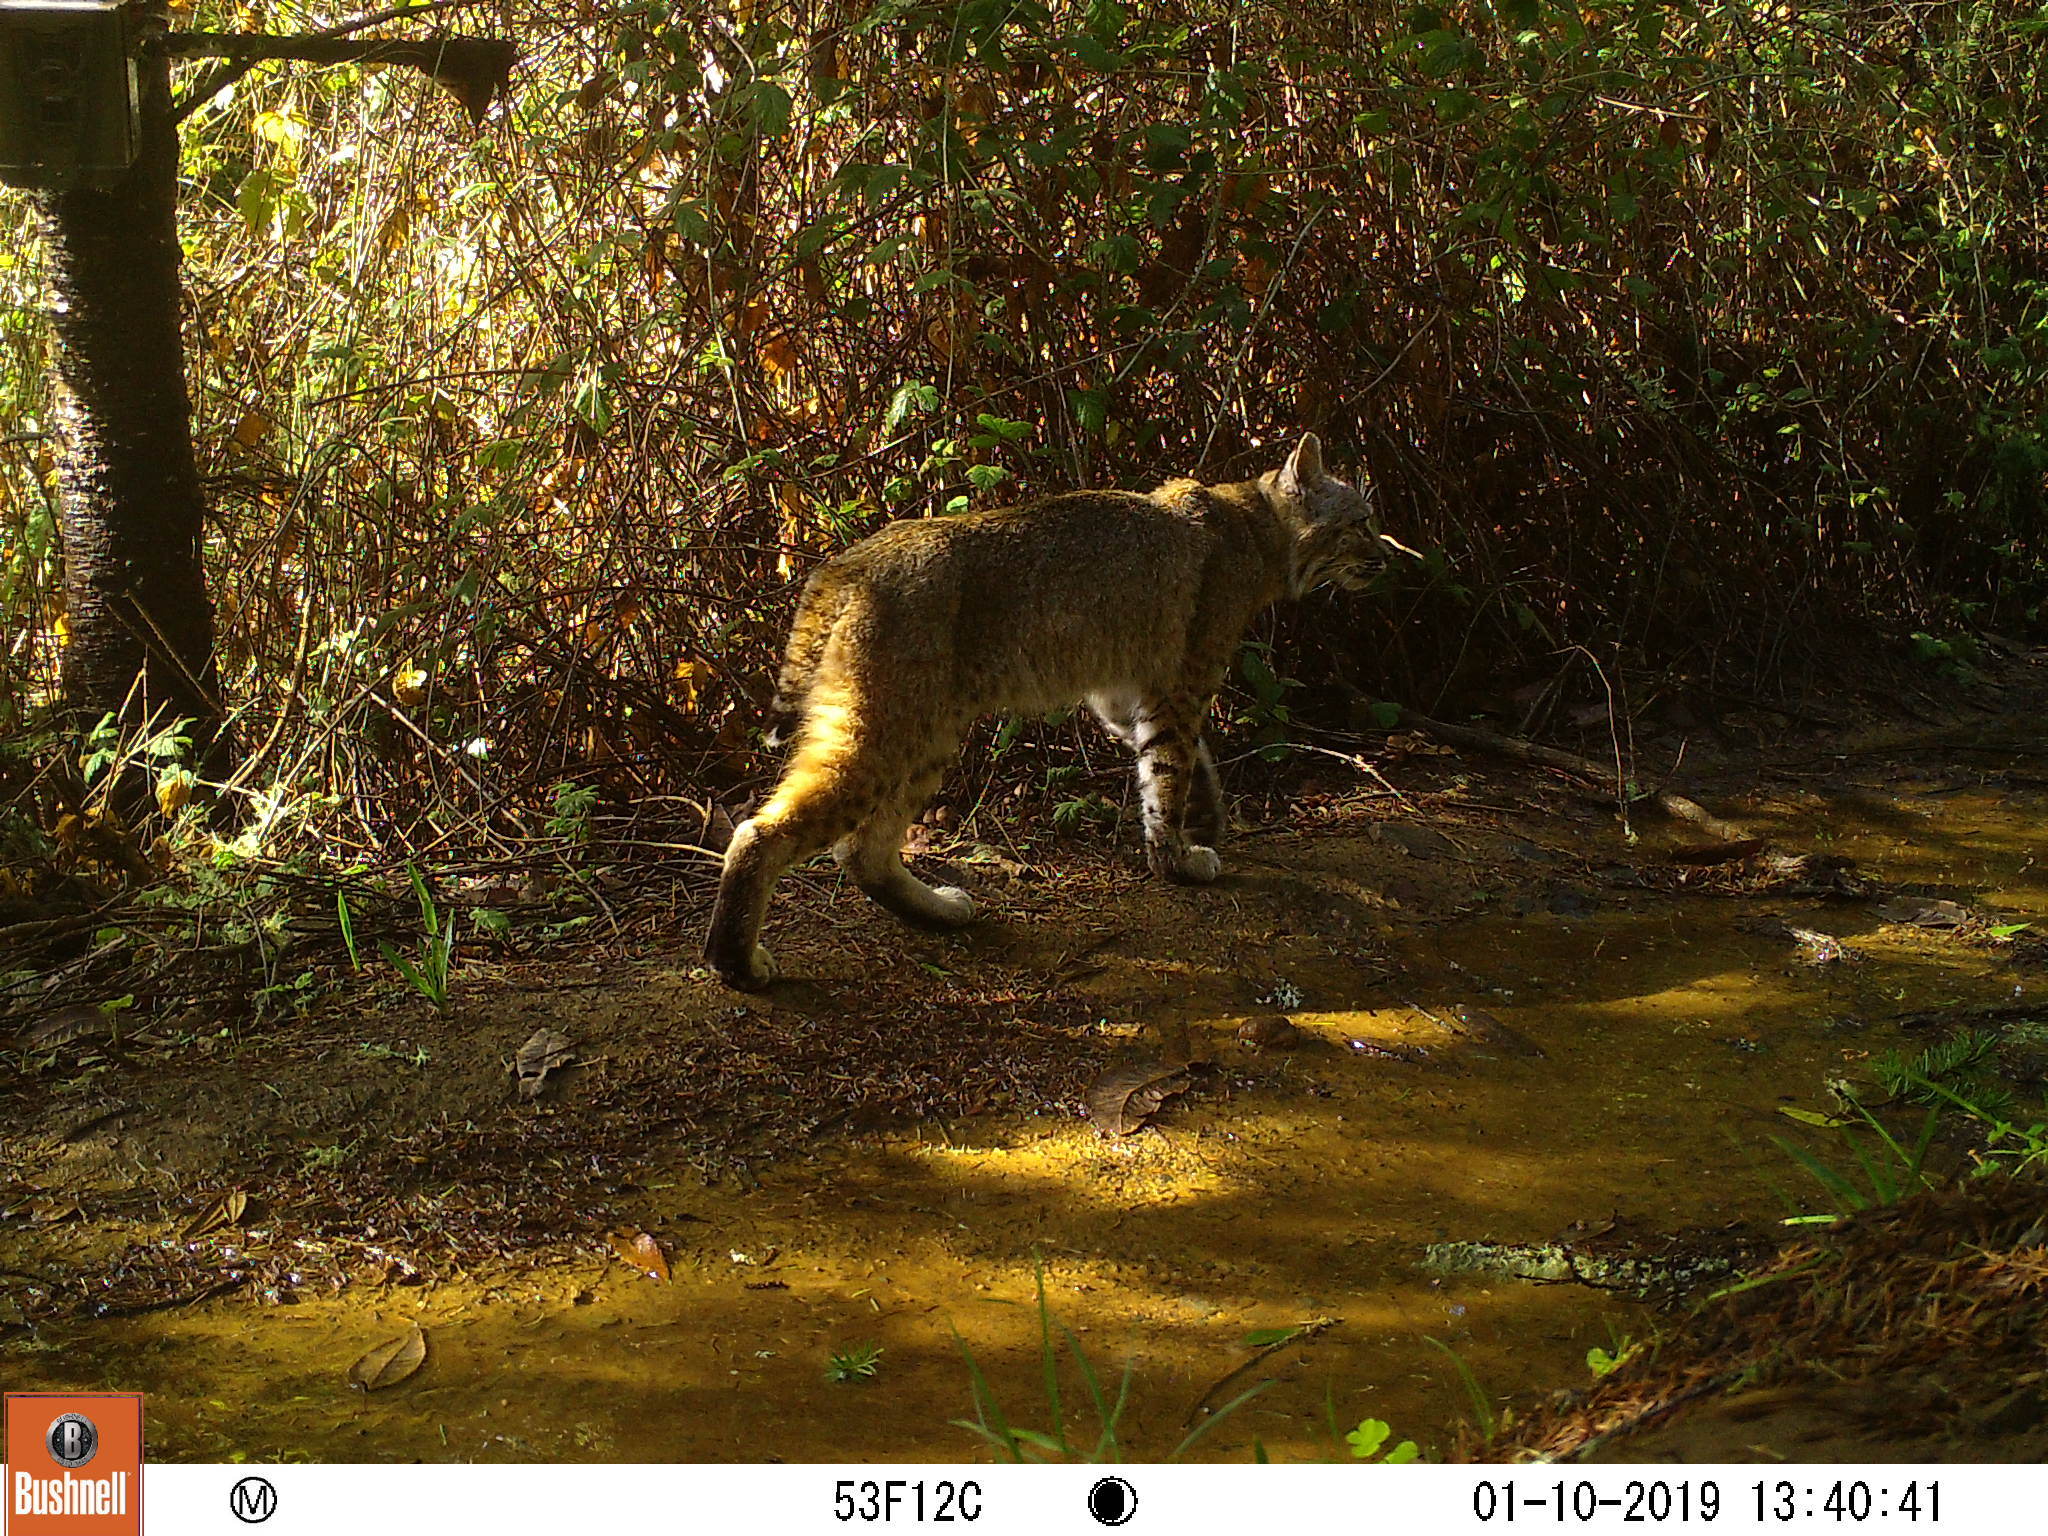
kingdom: Animalia
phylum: Chordata
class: Mammalia
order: Carnivora
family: Felidae
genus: Lynx
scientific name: Lynx rufus
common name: Bobcat
